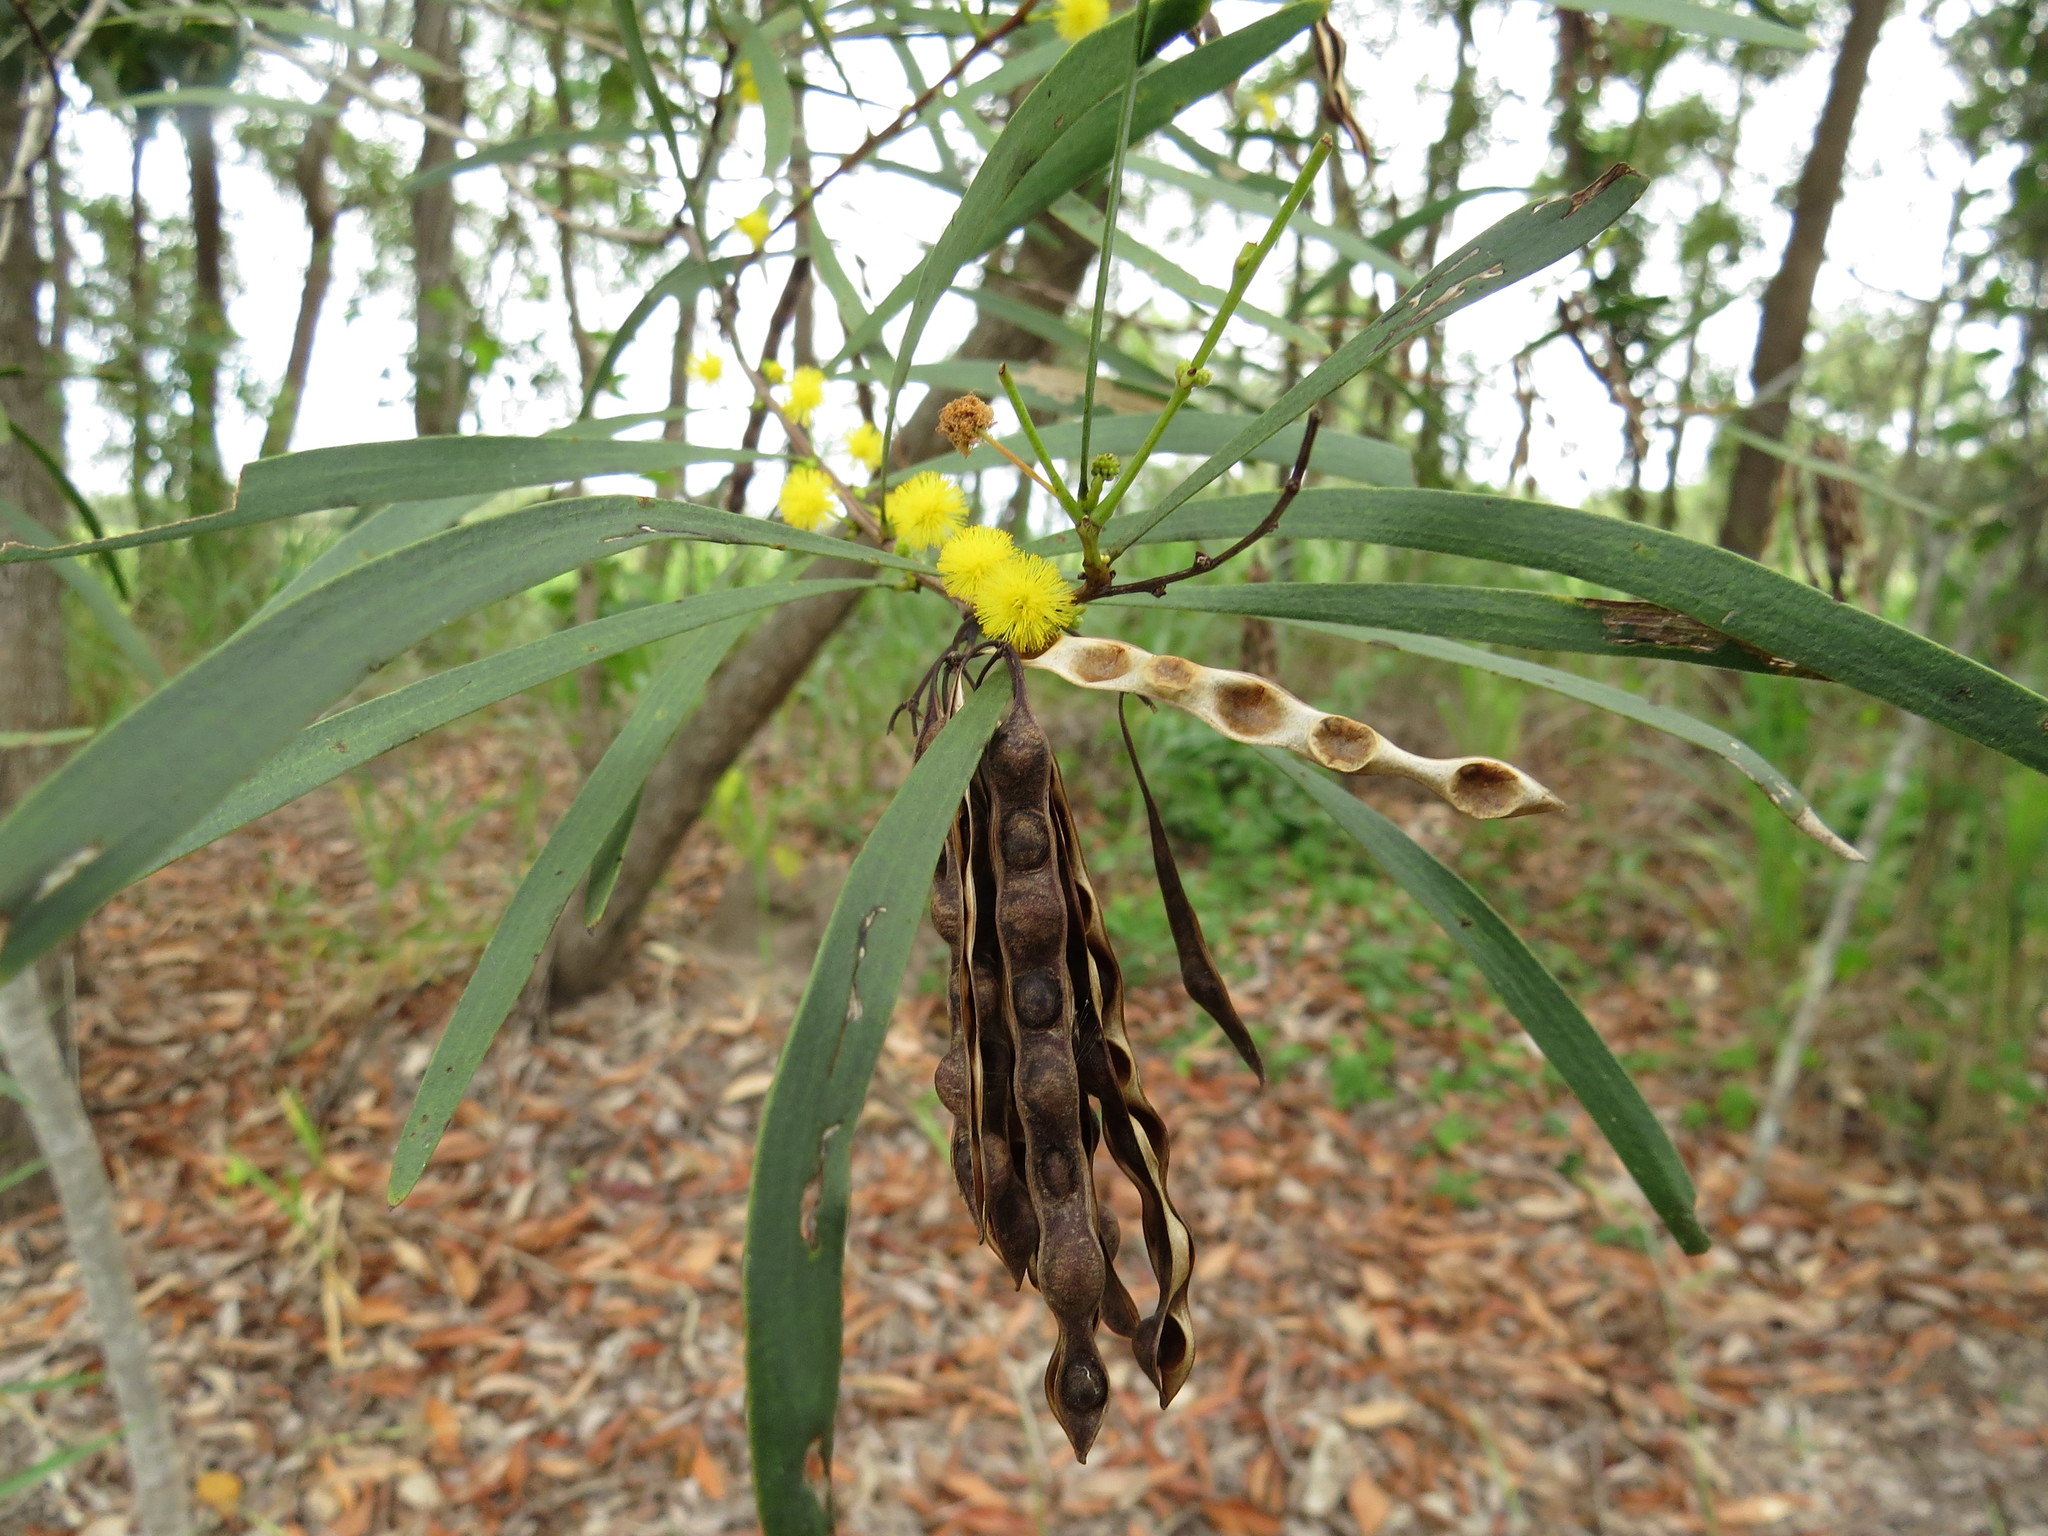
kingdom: Plantae
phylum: Tracheophyta
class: Magnoliopsida
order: Fabales
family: Fabaceae
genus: Acacia
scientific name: Acacia simsii
